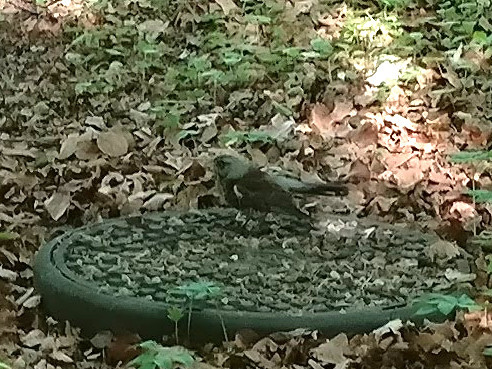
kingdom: Animalia
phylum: Chordata
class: Aves
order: Passeriformes
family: Turdidae
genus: Turdus
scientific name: Turdus pilaris
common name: Fieldfare
